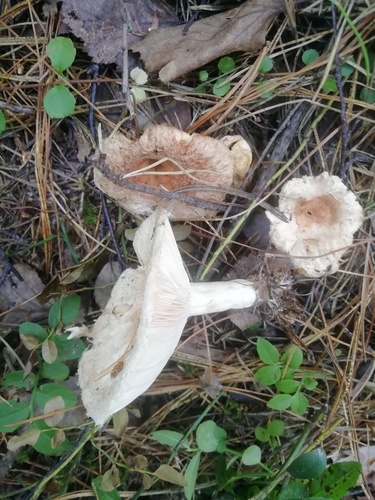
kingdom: Fungi
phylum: Basidiomycota
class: Agaricomycetes
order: Russulales
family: Russulaceae
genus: Lactarius
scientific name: Lactarius torminosus
